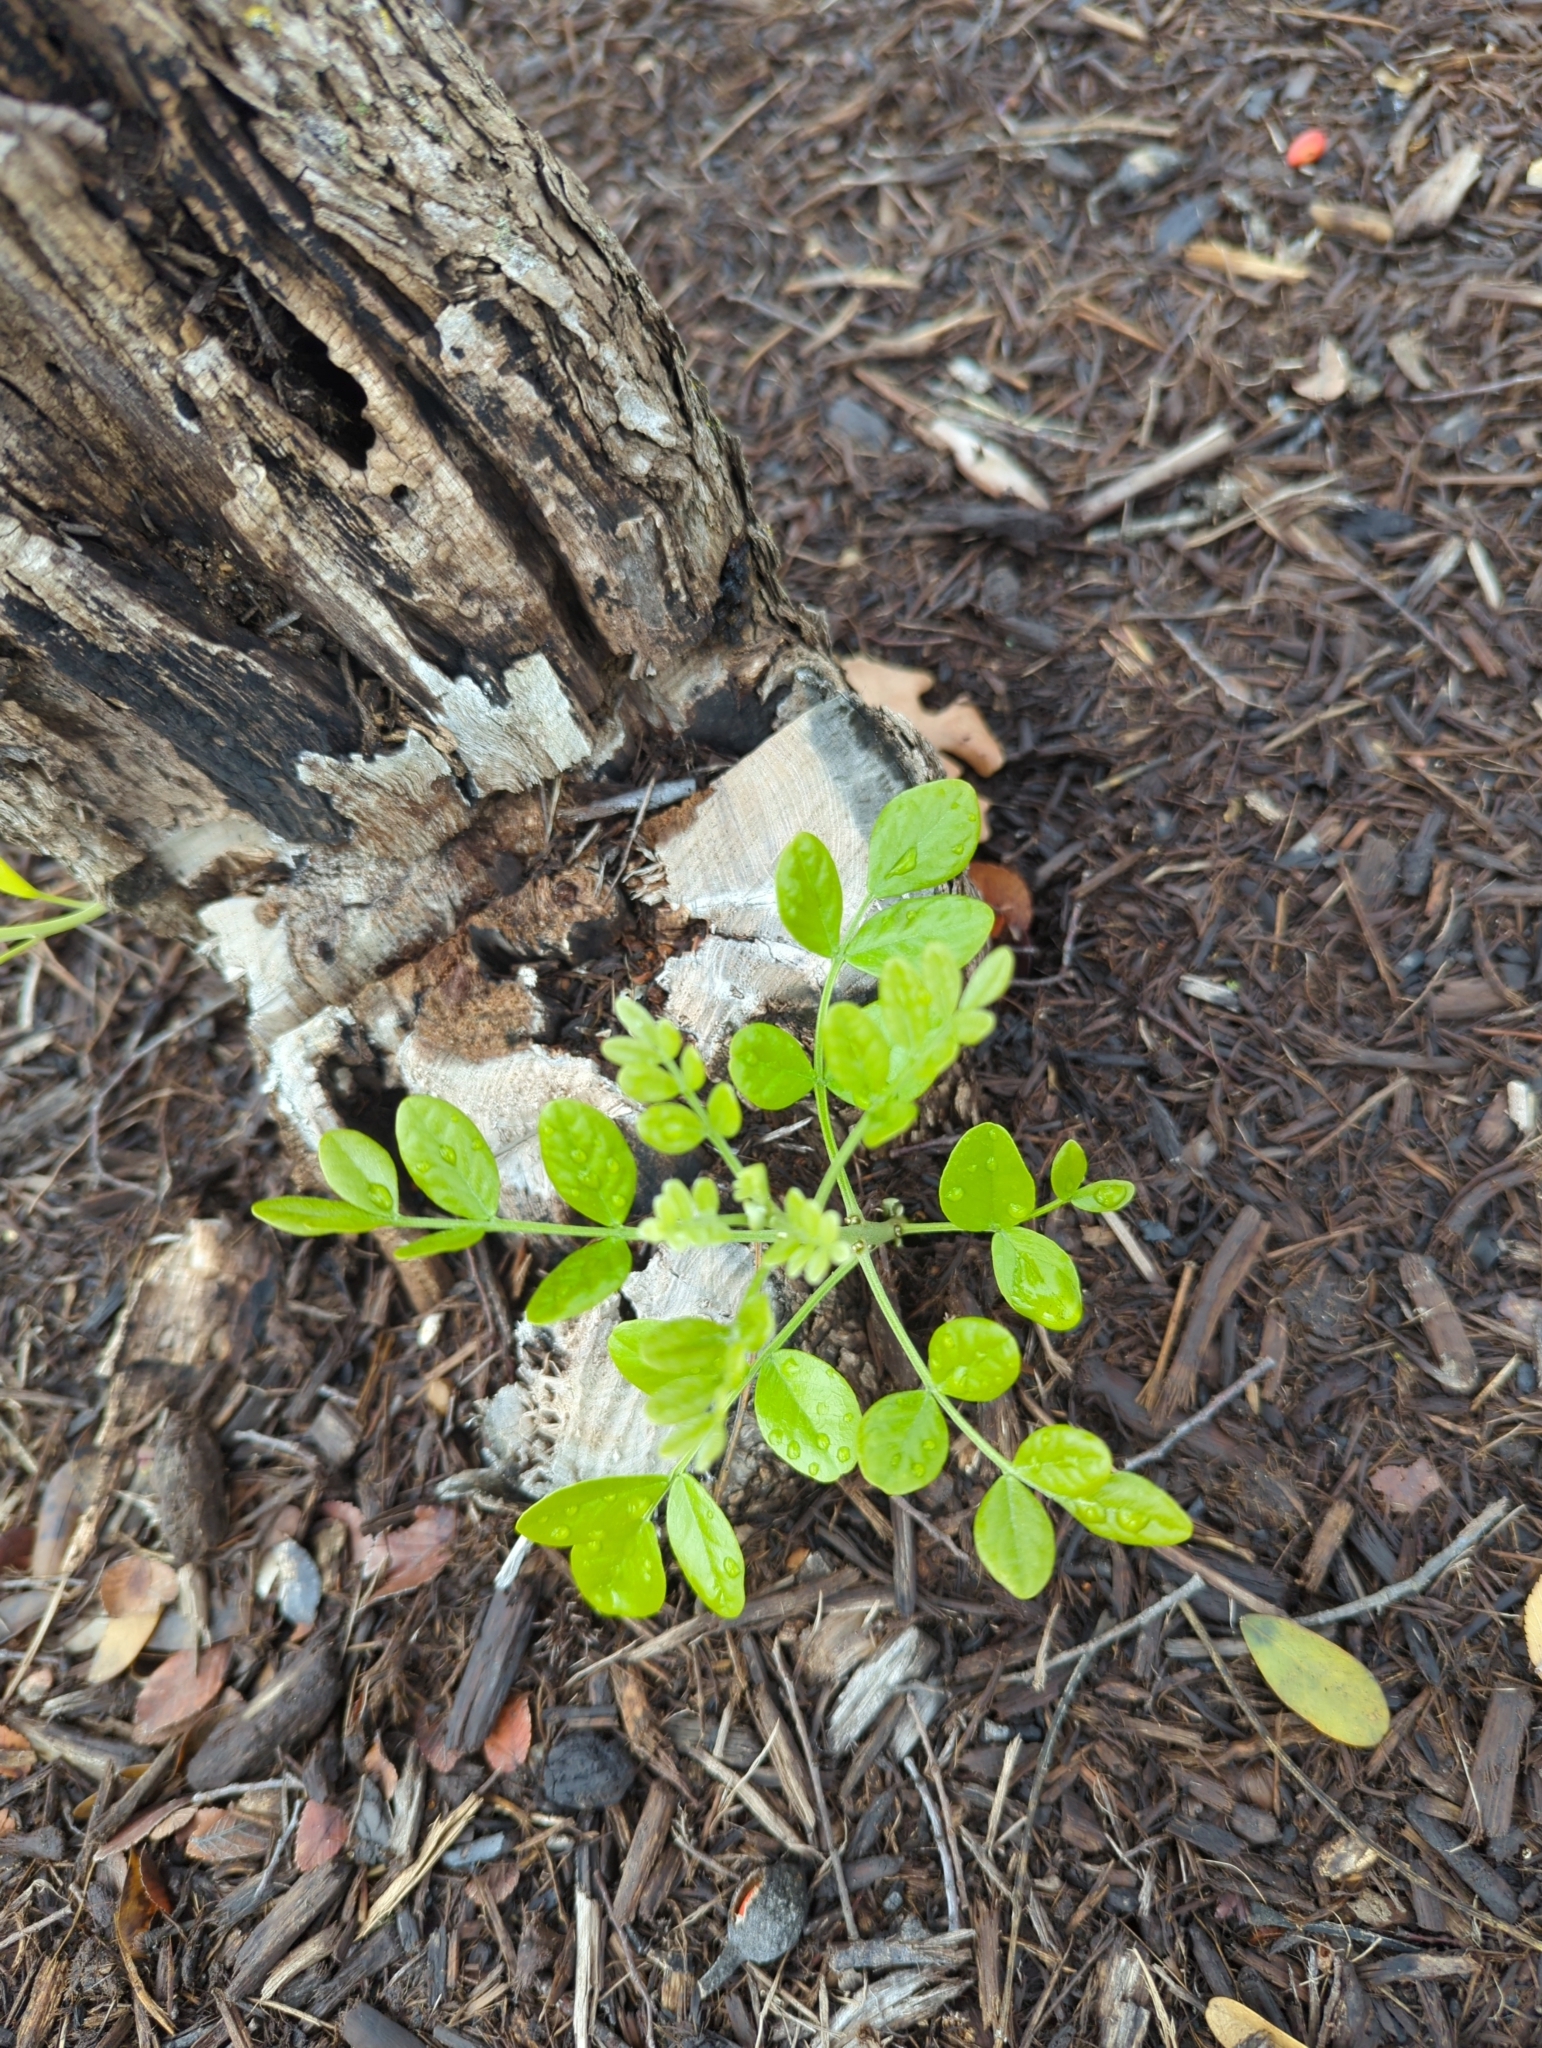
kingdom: Plantae
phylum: Tracheophyta
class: Magnoliopsida
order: Fabales
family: Fabaceae
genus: Dermatophyllum
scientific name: Dermatophyllum secundiflorum
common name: Texas-mountain-laurel
